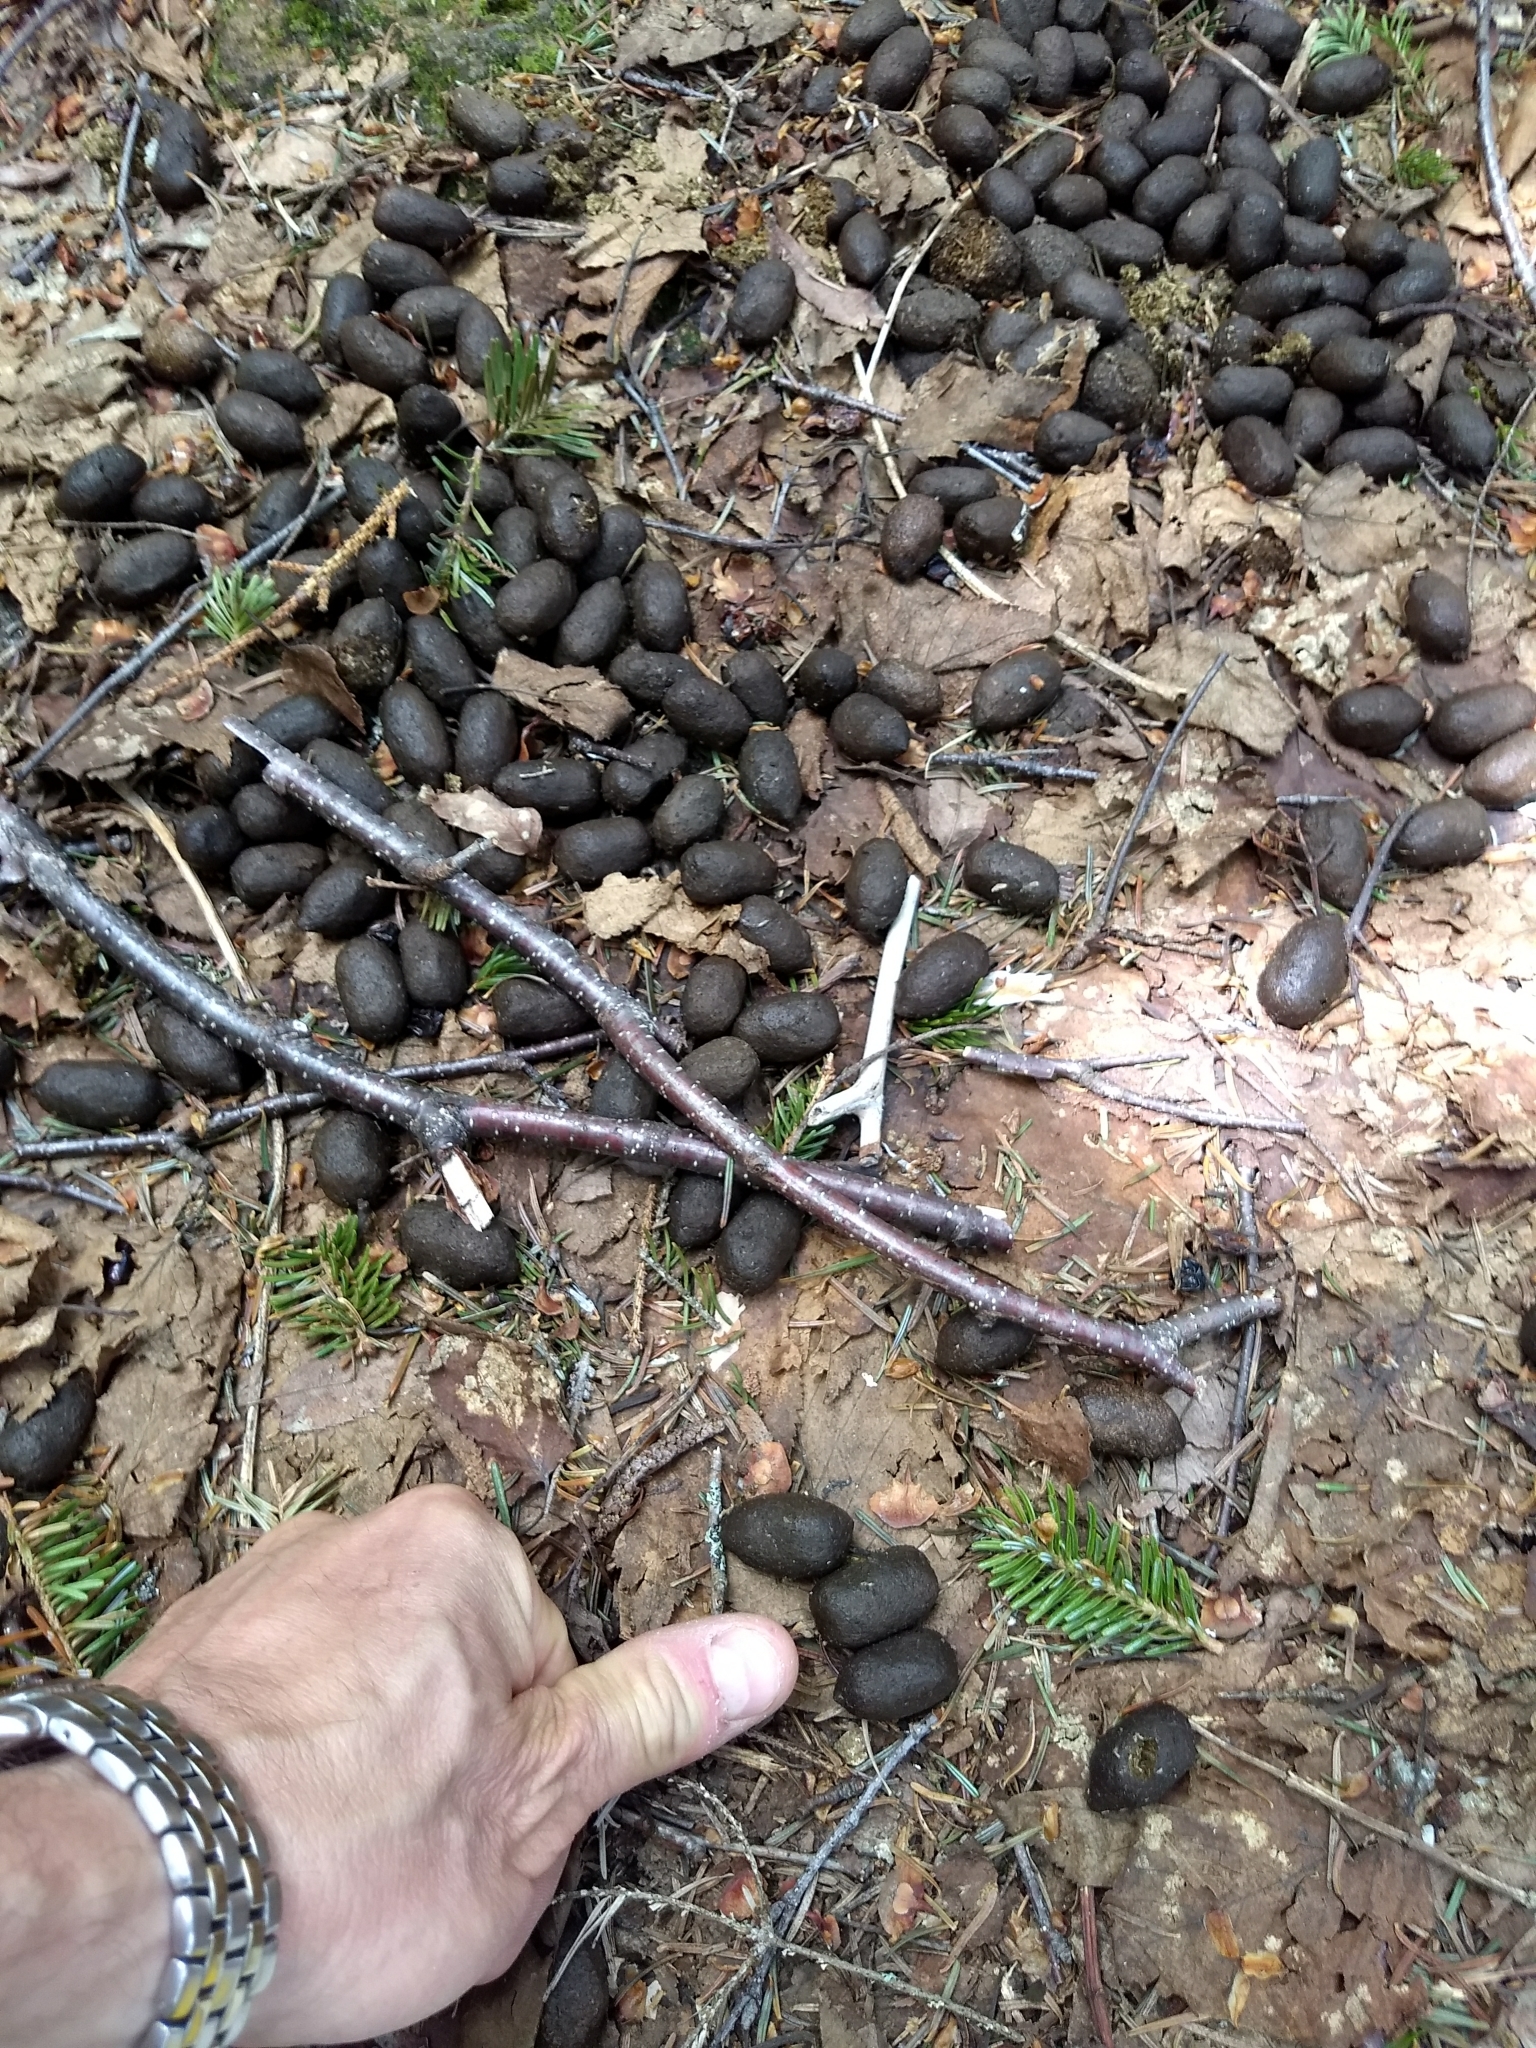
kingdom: Animalia
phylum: Chordata
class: Mammalia
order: Artiodactyla
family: Cervidae
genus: Alces
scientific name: Alces alces
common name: Moose
